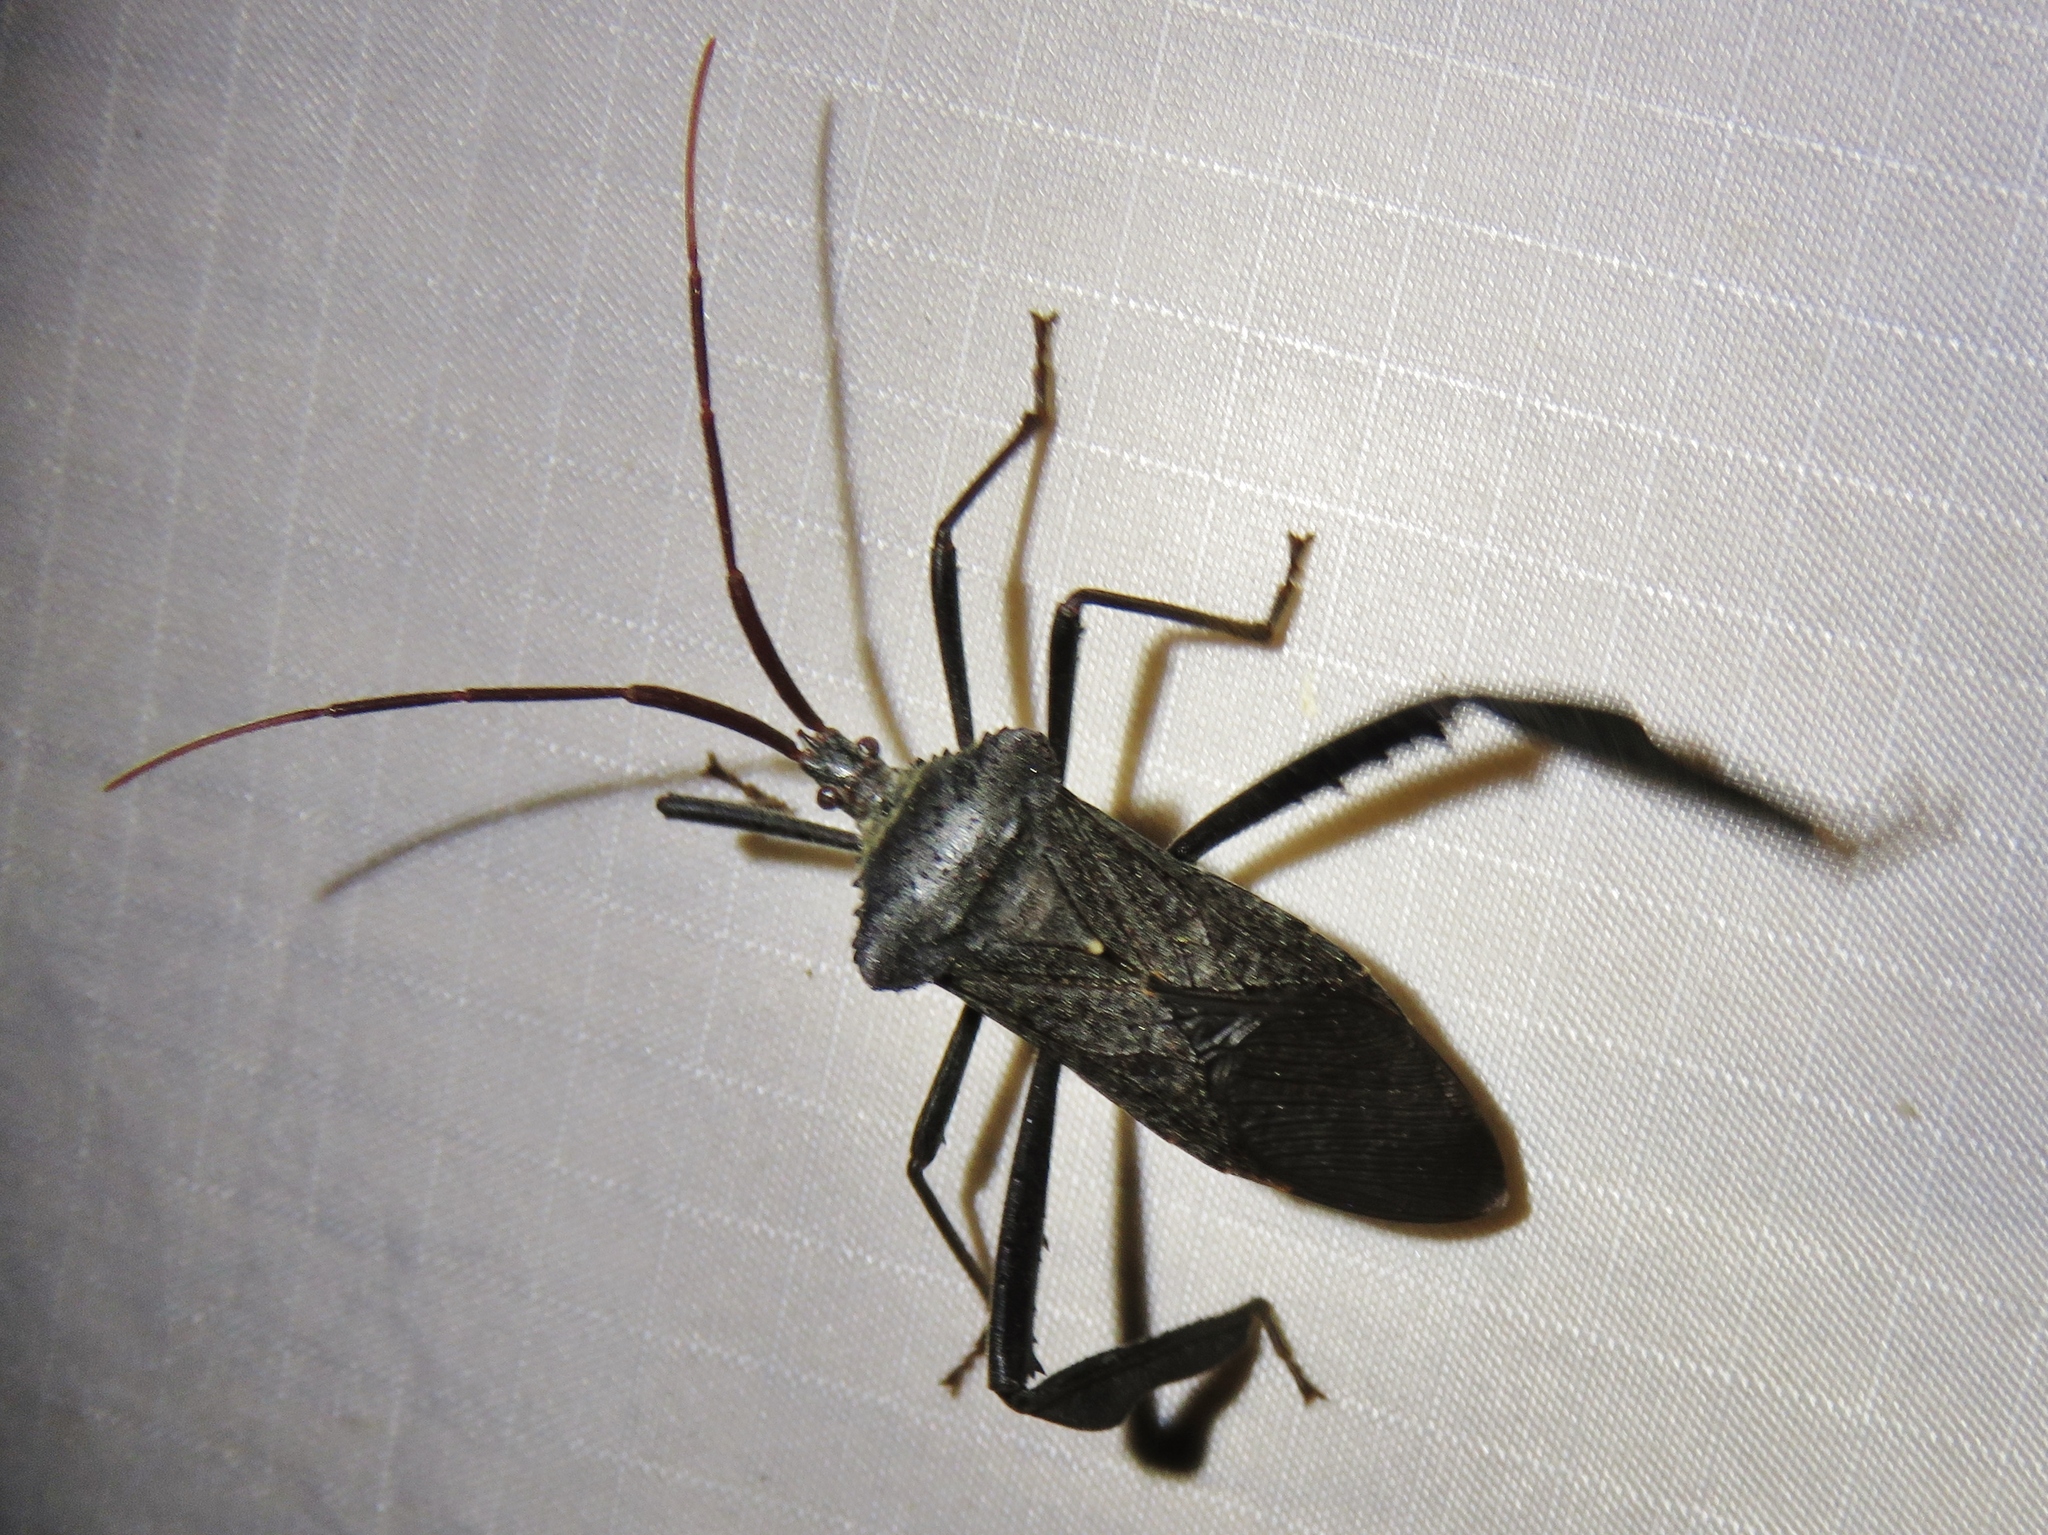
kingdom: Animalia
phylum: Arthropoda
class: Insecta
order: Hemiptera
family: Coreidae
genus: Acanthocephala
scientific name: Acanthocephala declivis
